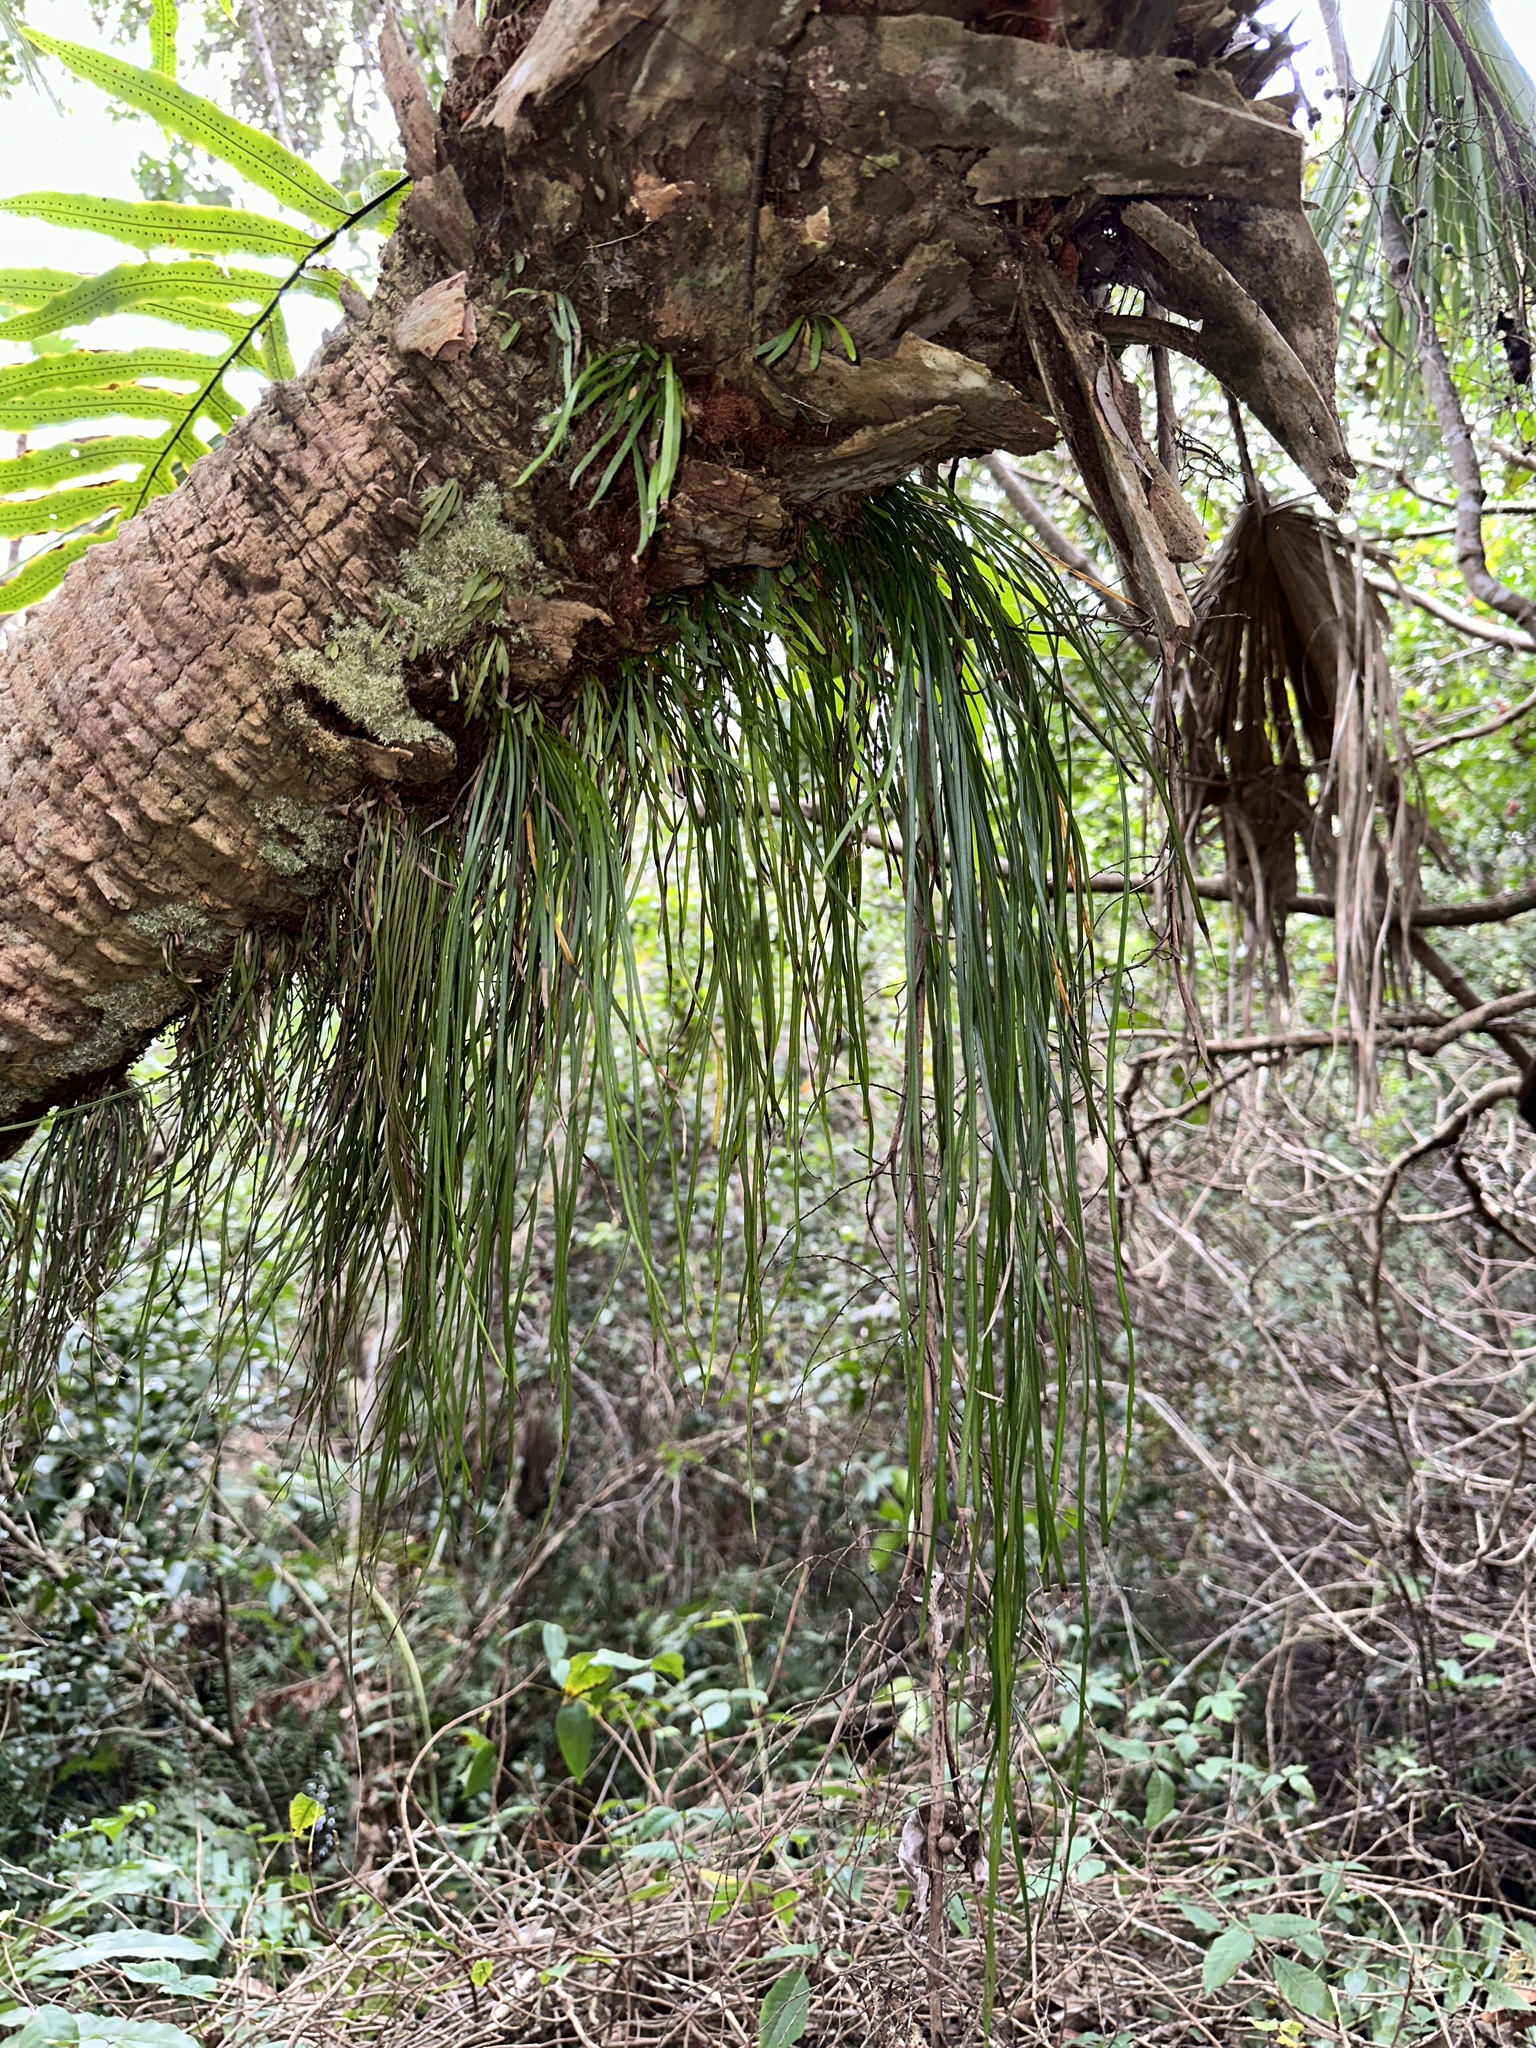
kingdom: Plantae
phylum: Tracheophyta
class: Polypodiopsida
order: Polypodiales
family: Pteridaceae
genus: Vittaria
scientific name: Vittaria lineata
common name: Shoestring fern
